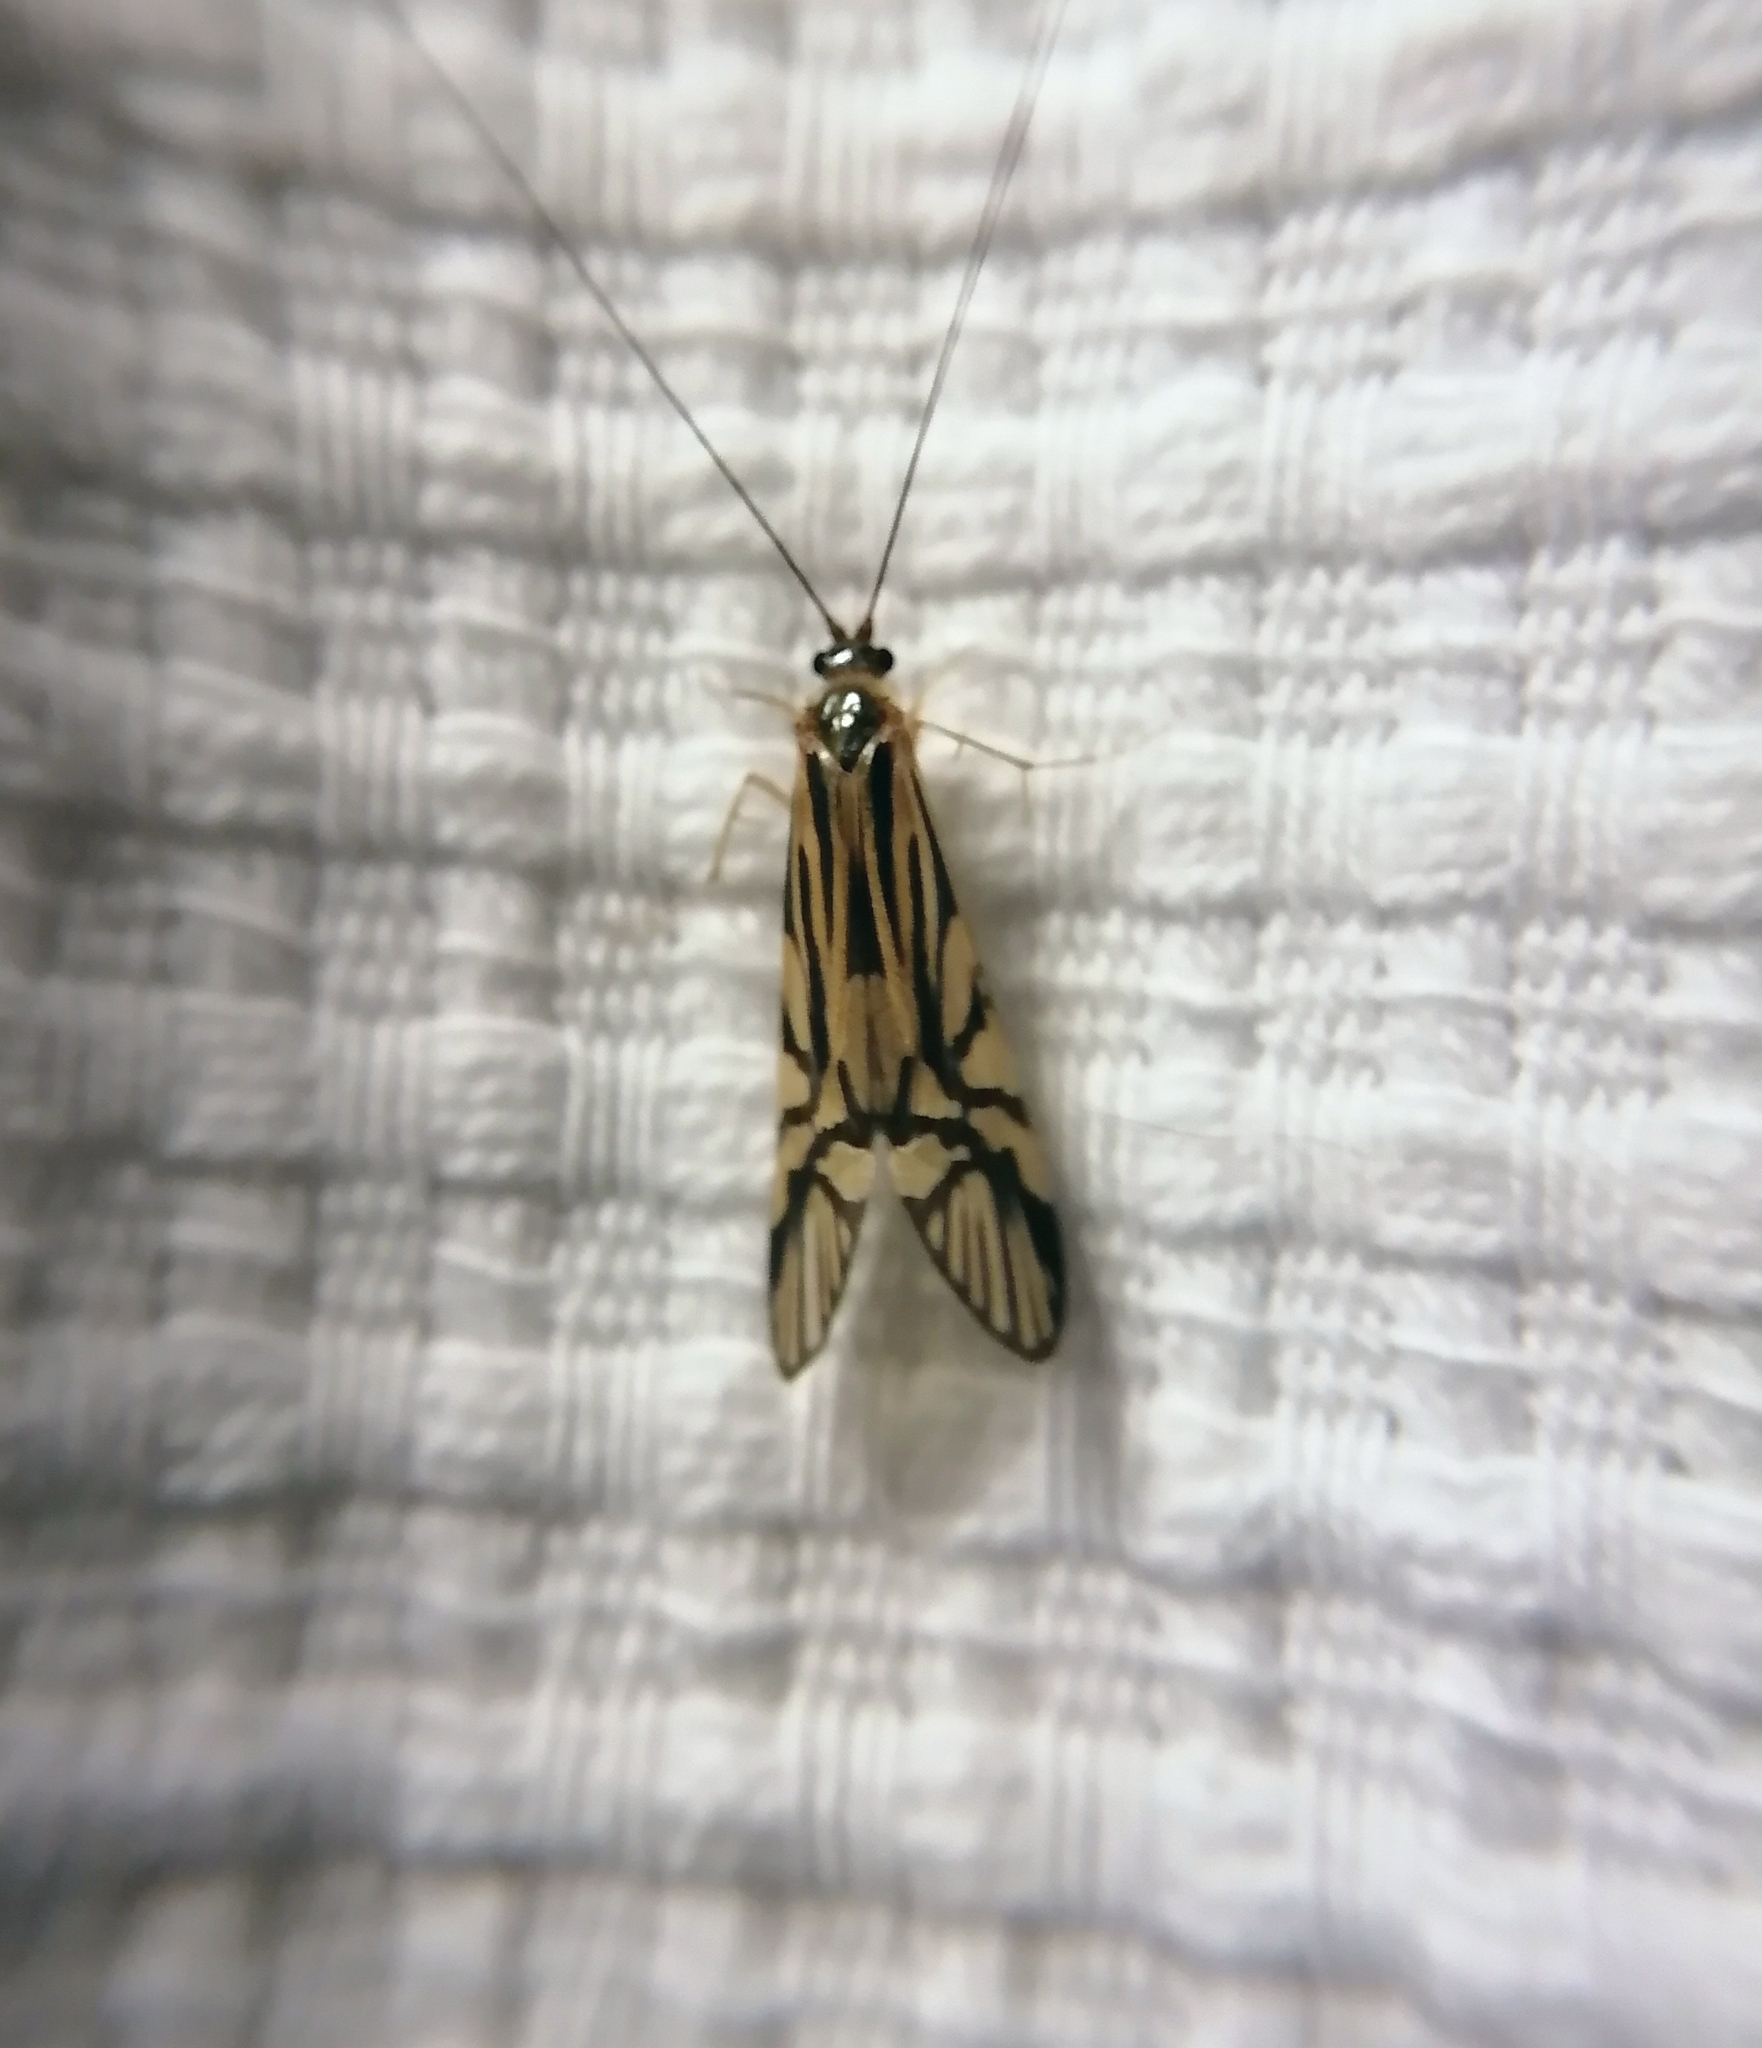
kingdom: Animalia
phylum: Arthropoda
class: Insecta
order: Trichoptera
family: Hydropsychidae
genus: Macrostemum
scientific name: Macrostemum radiatum
